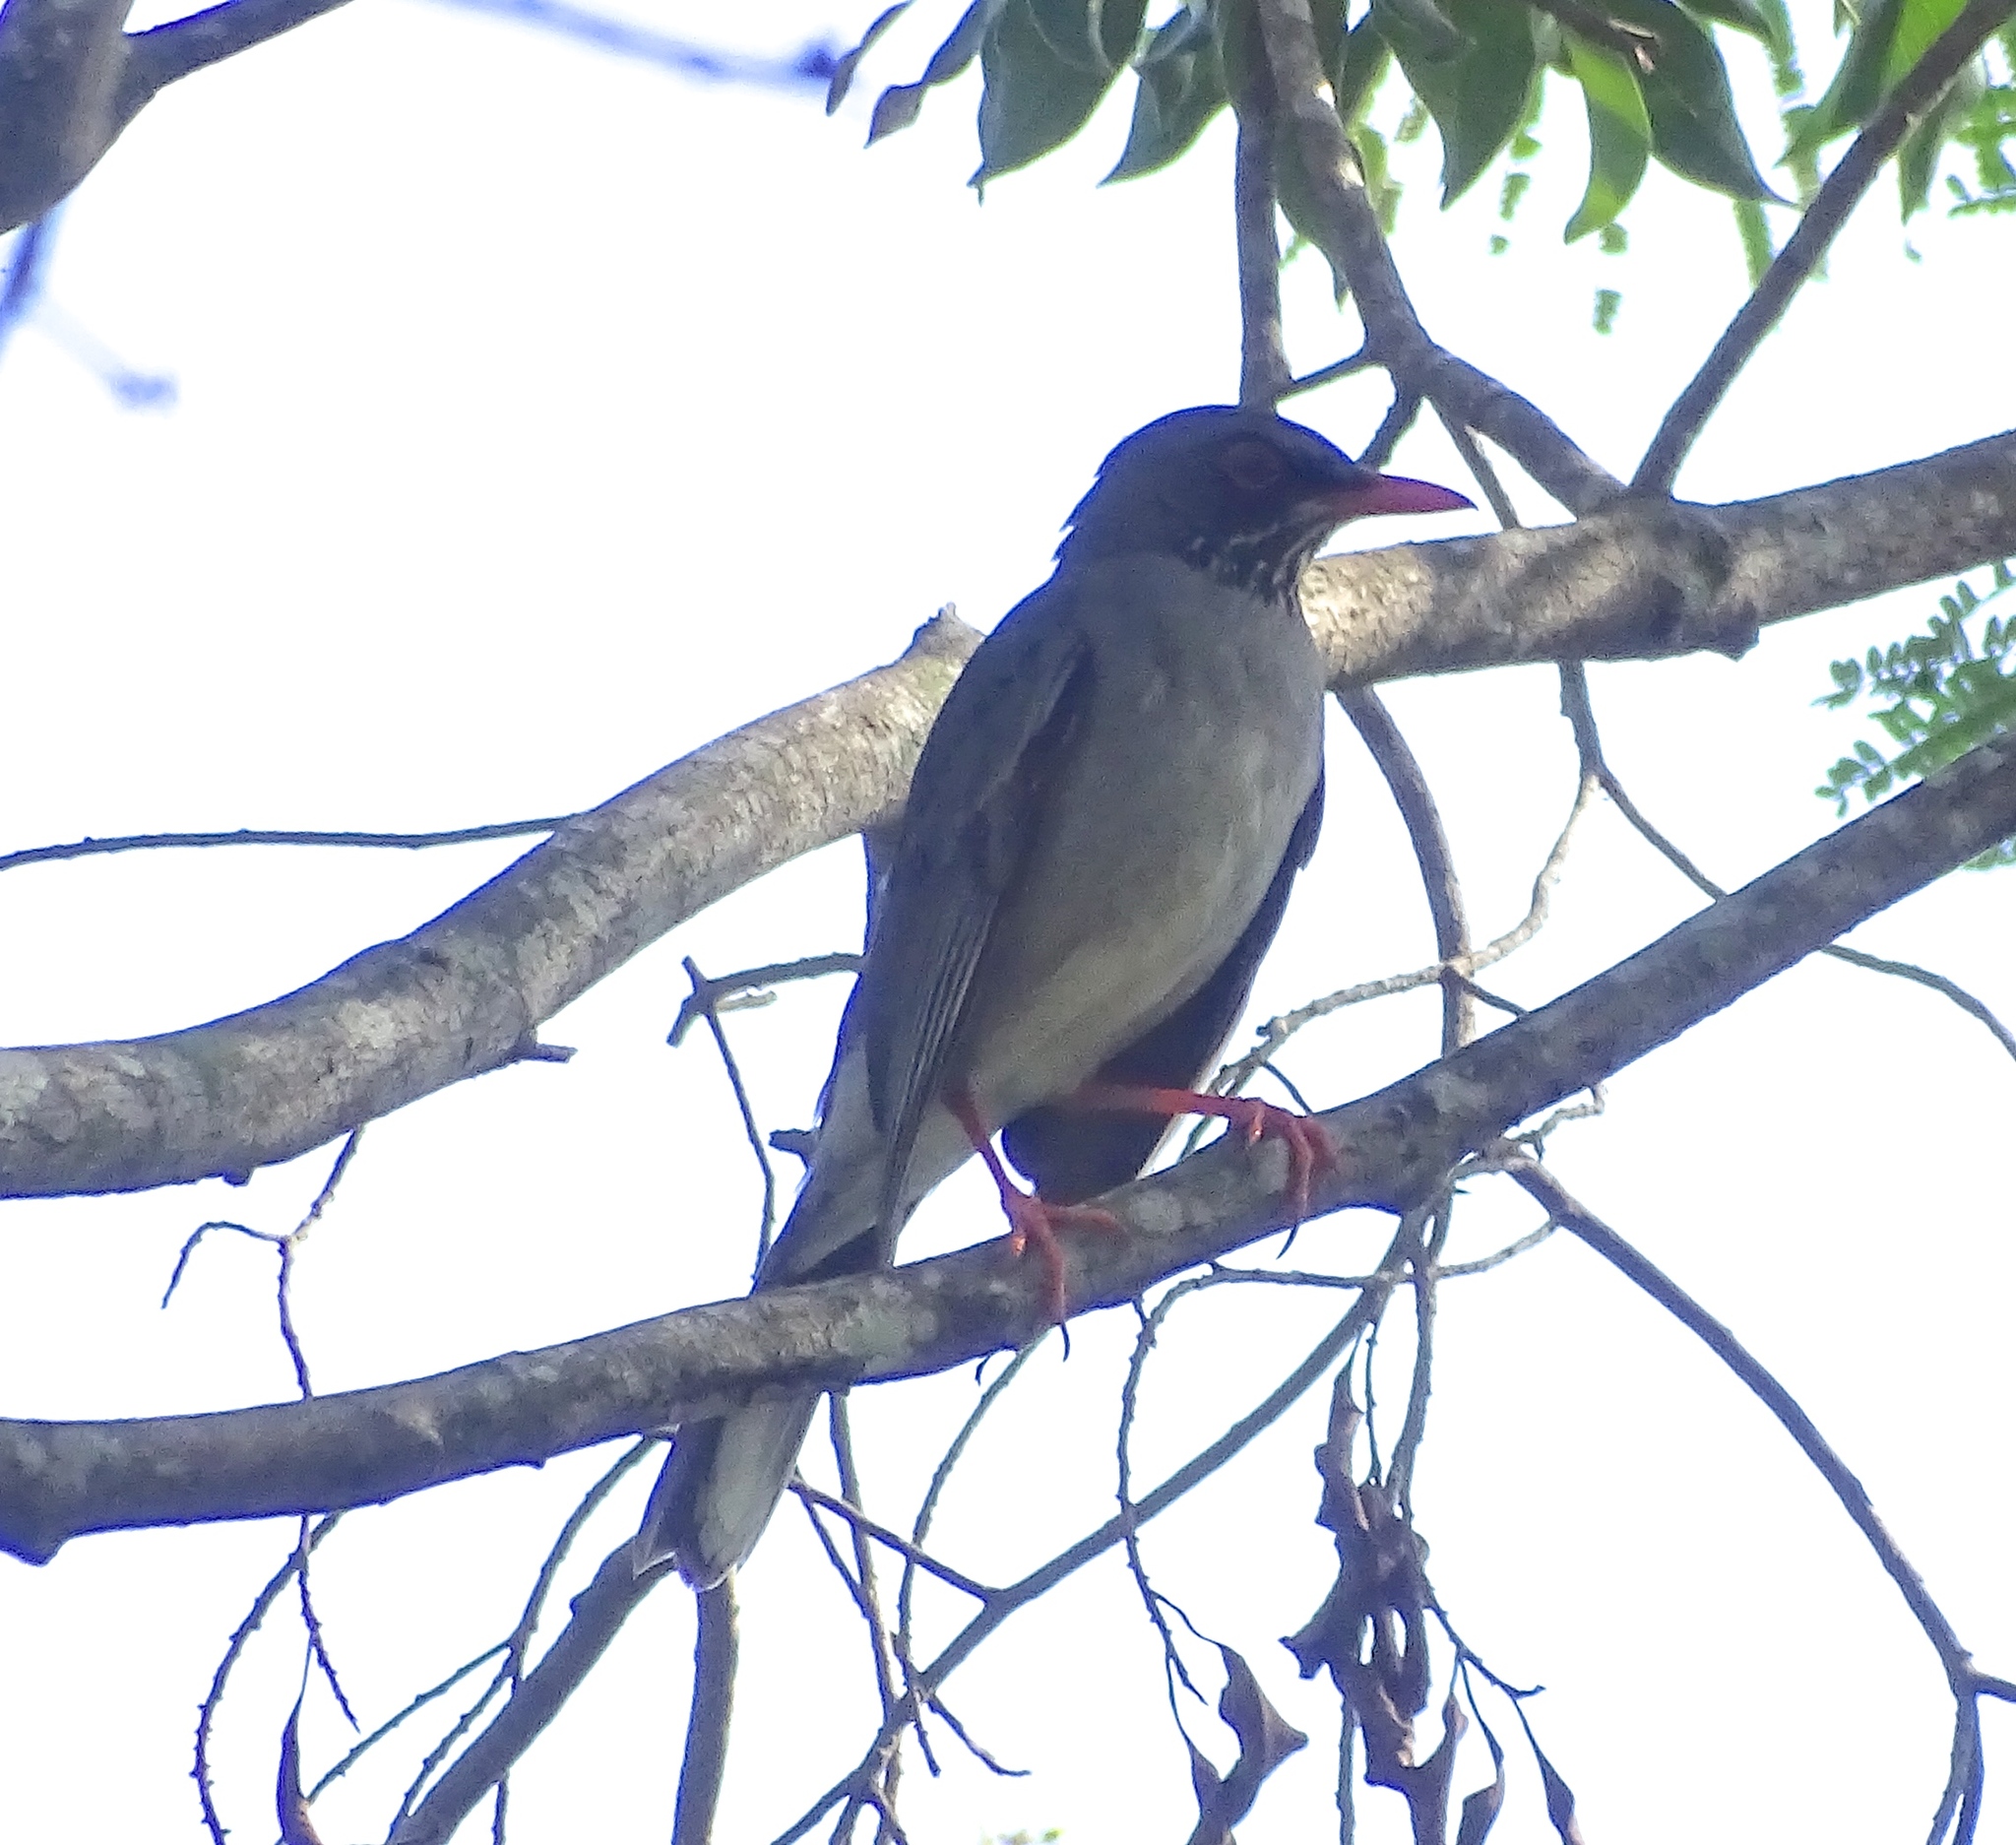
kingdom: Animalia
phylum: Chordata
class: Aves
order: Passeriformes
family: Turdidae
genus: Turdus
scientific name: Turdus plumbeus
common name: Red-legged thrush
